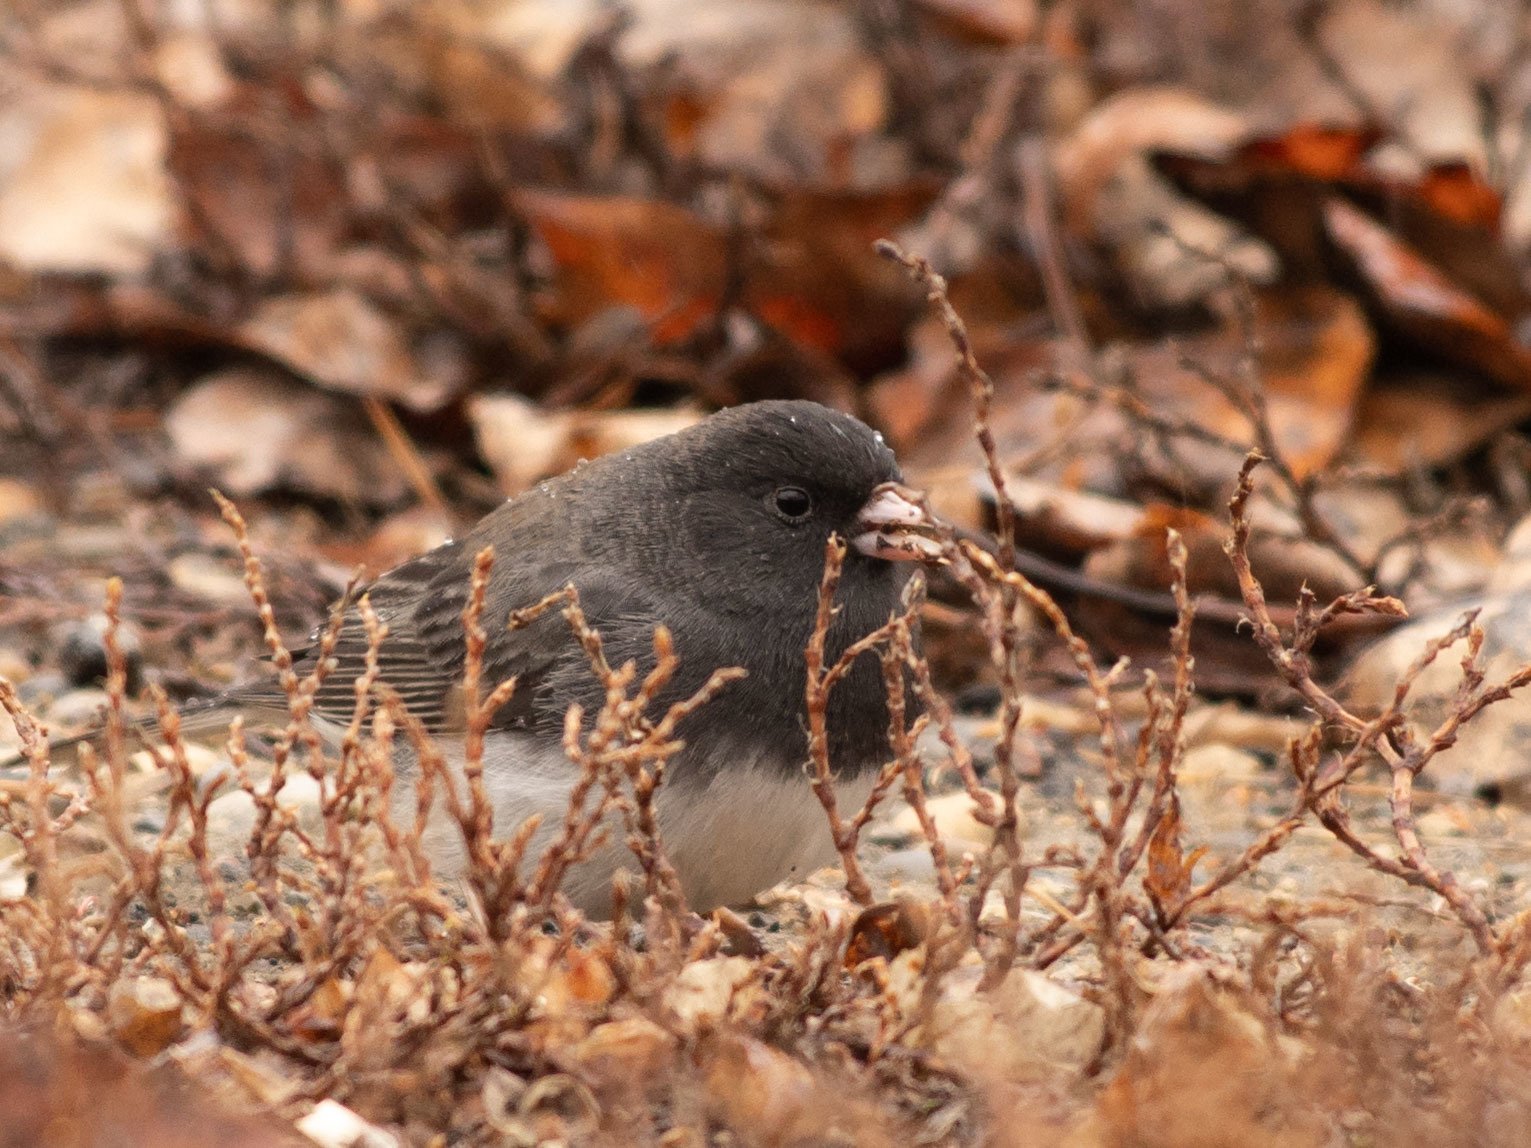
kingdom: Animalia
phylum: Chordata
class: Aves
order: Passeriformes
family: Passerellidae
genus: Junco
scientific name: Junco hyemalis
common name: Dark-eyed junco
